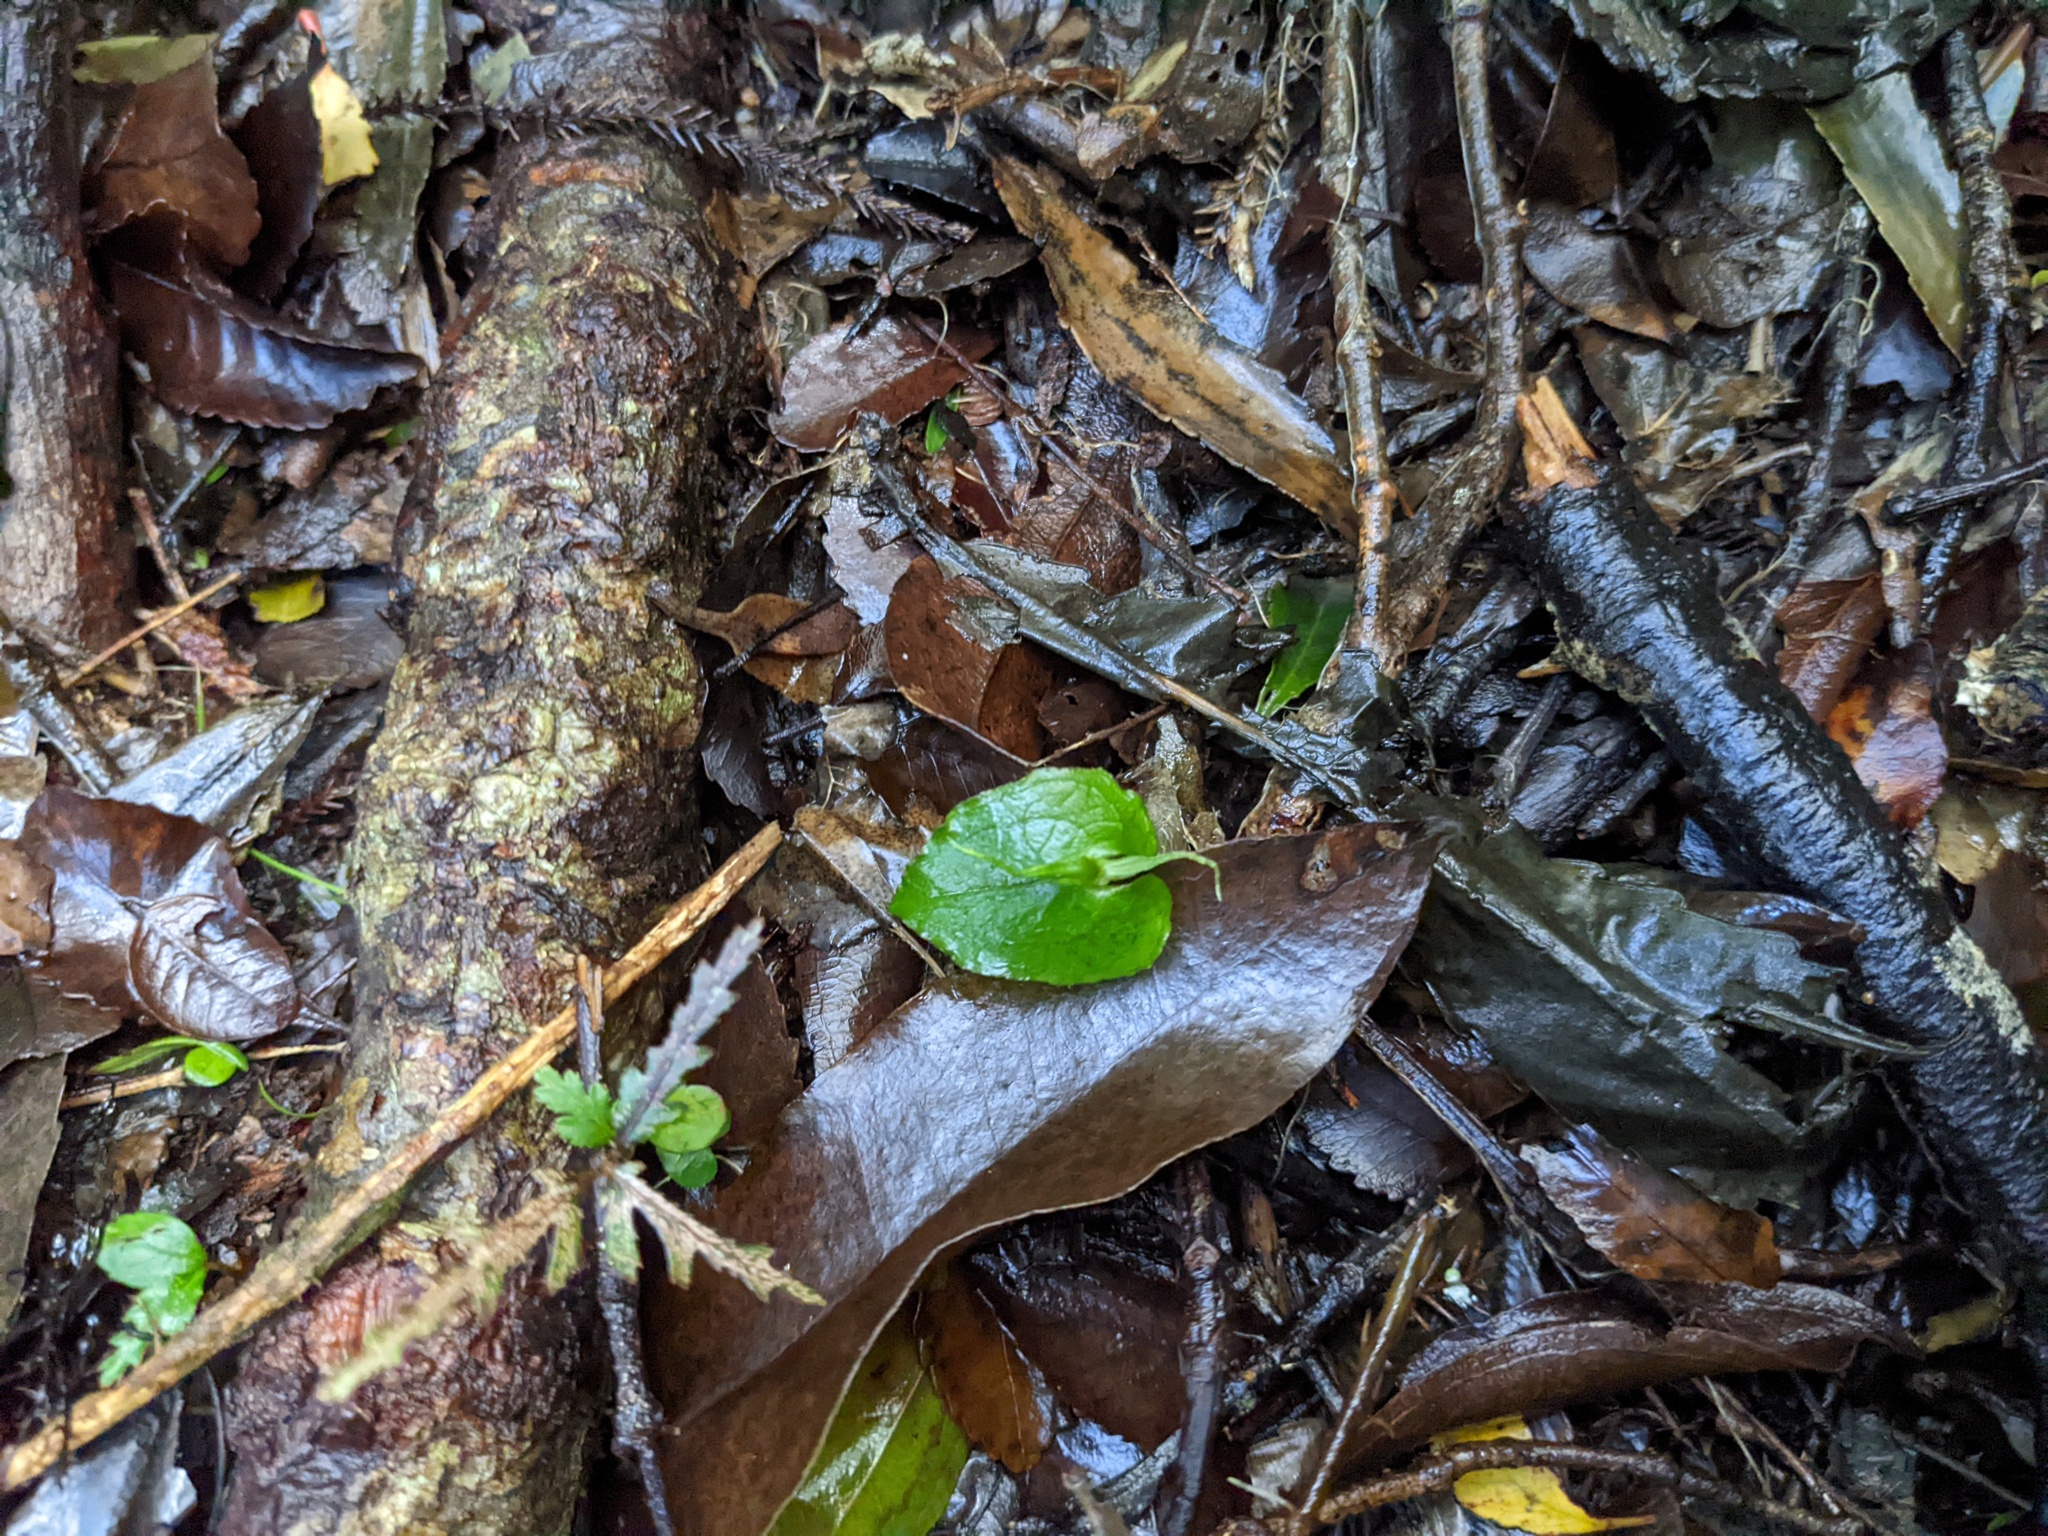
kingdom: Plantae
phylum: Tracheophyta
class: Liliopsida
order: Asparagales
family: Orchidaceae
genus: Corybas
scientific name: Corybas acuminatus
